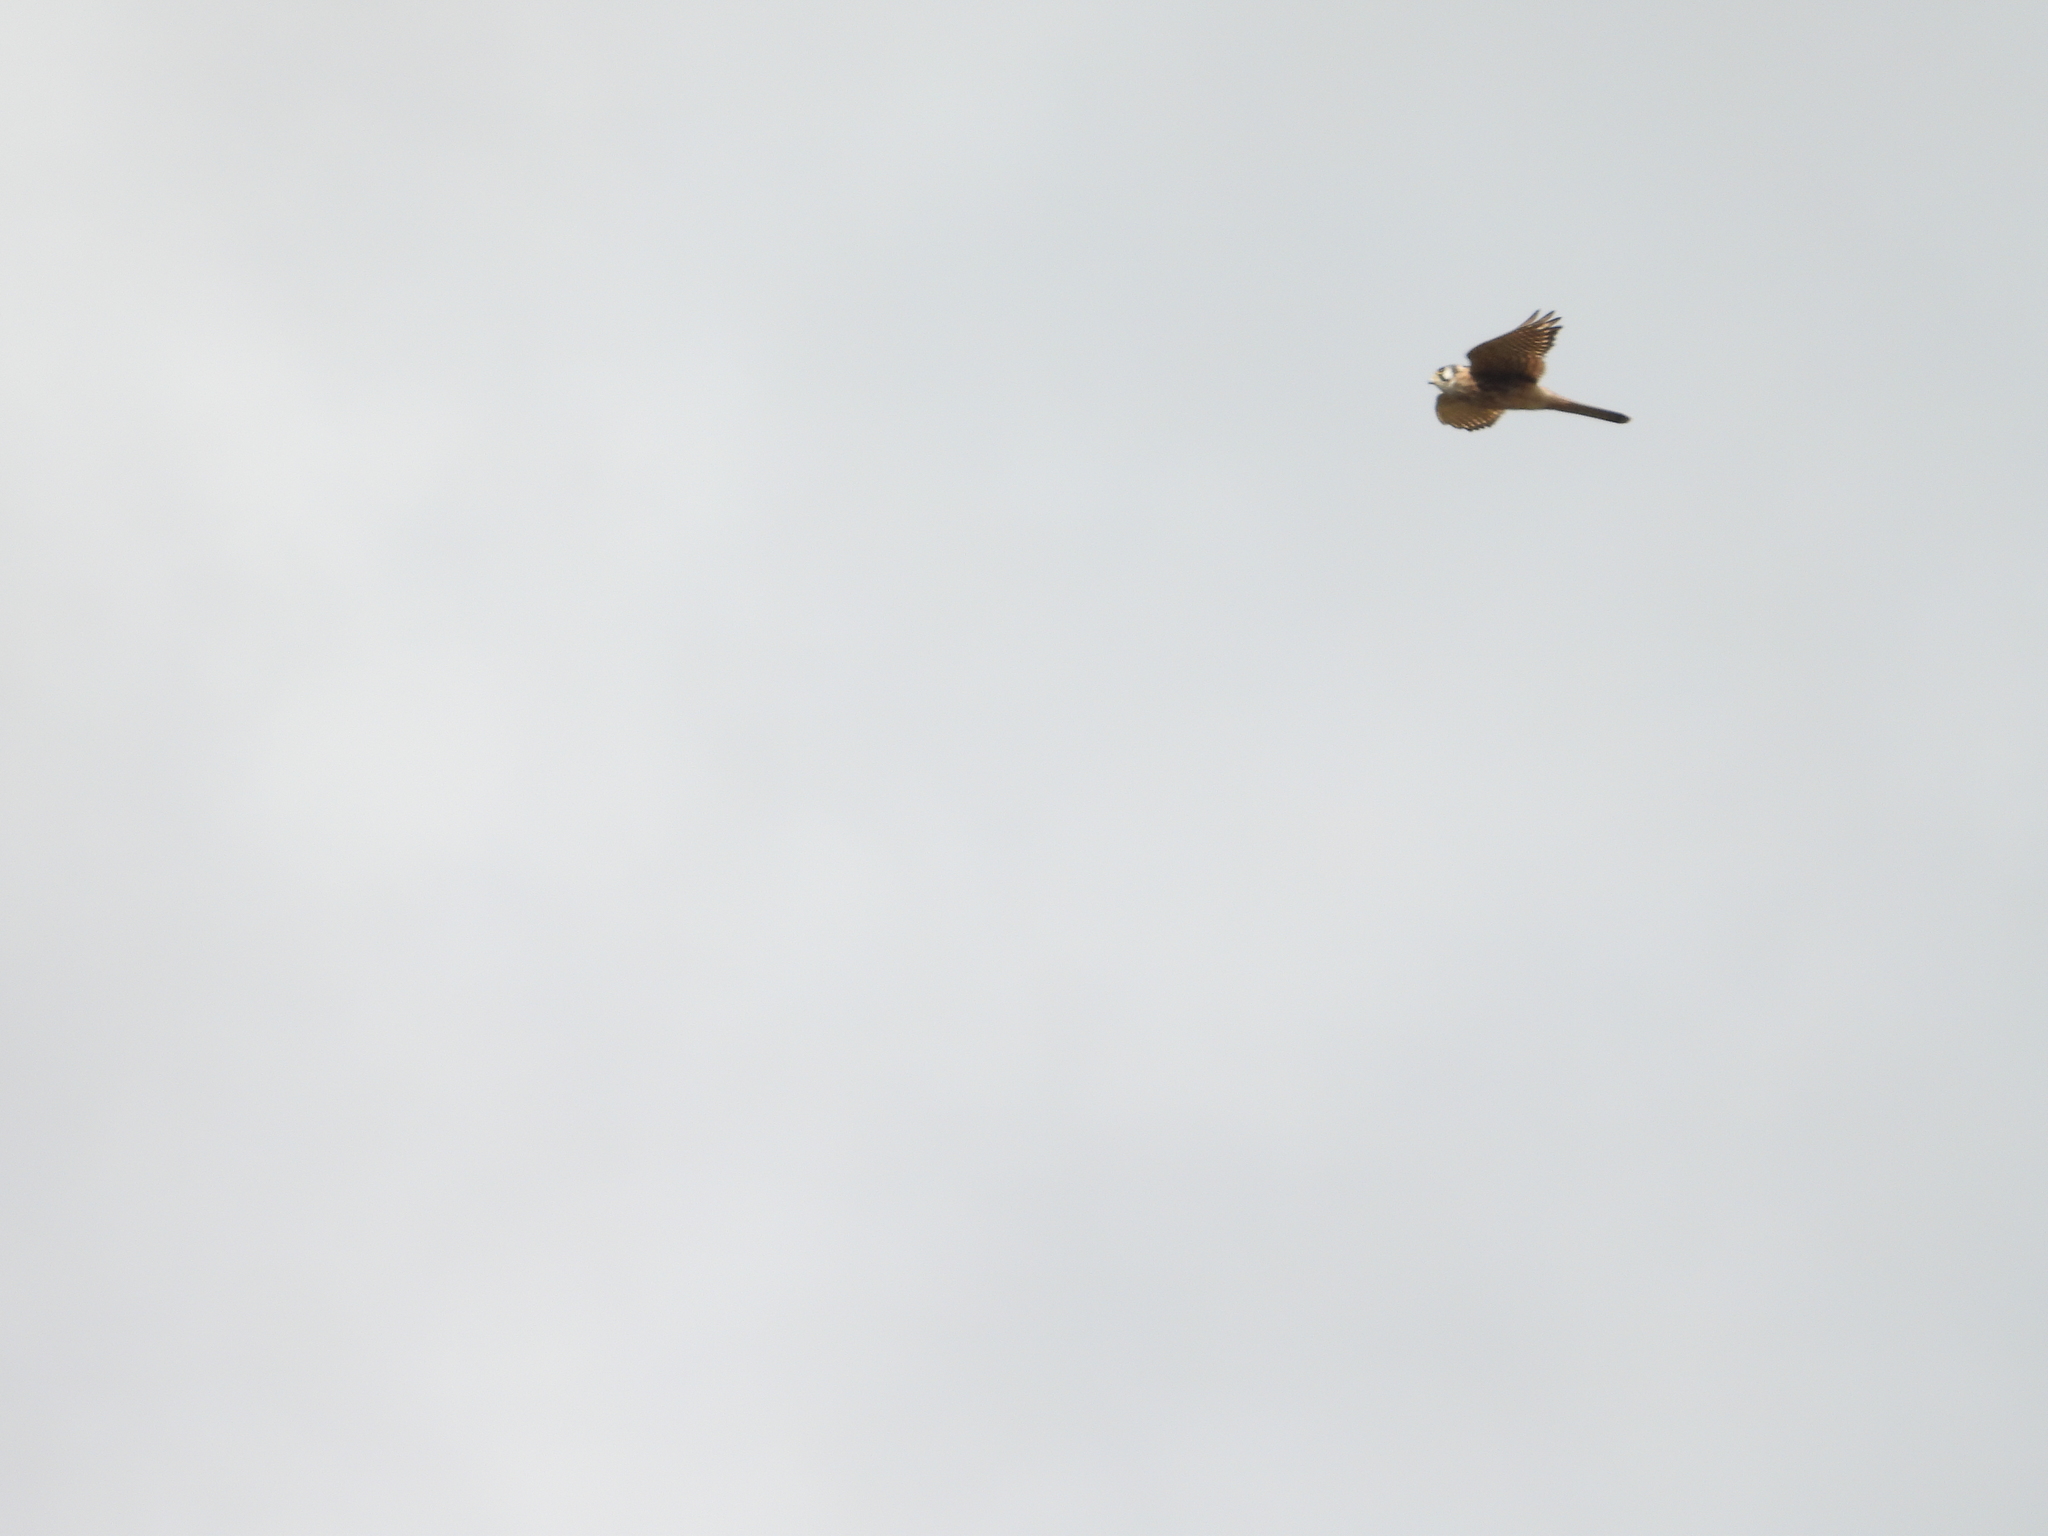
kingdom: Animalia
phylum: Chordata
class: Aves
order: Falconiformes
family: Falconidae
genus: Falco
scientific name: Falco sparverius
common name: American kestrel
